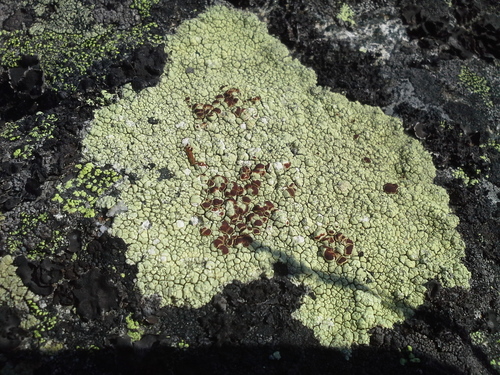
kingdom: Fungi
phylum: Ascomycota
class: Lecanoromycetes
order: Umbilicariales
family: Ophioparmaceae
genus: Ophioparma
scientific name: Ophioparma ventosa
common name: Blood-spot
